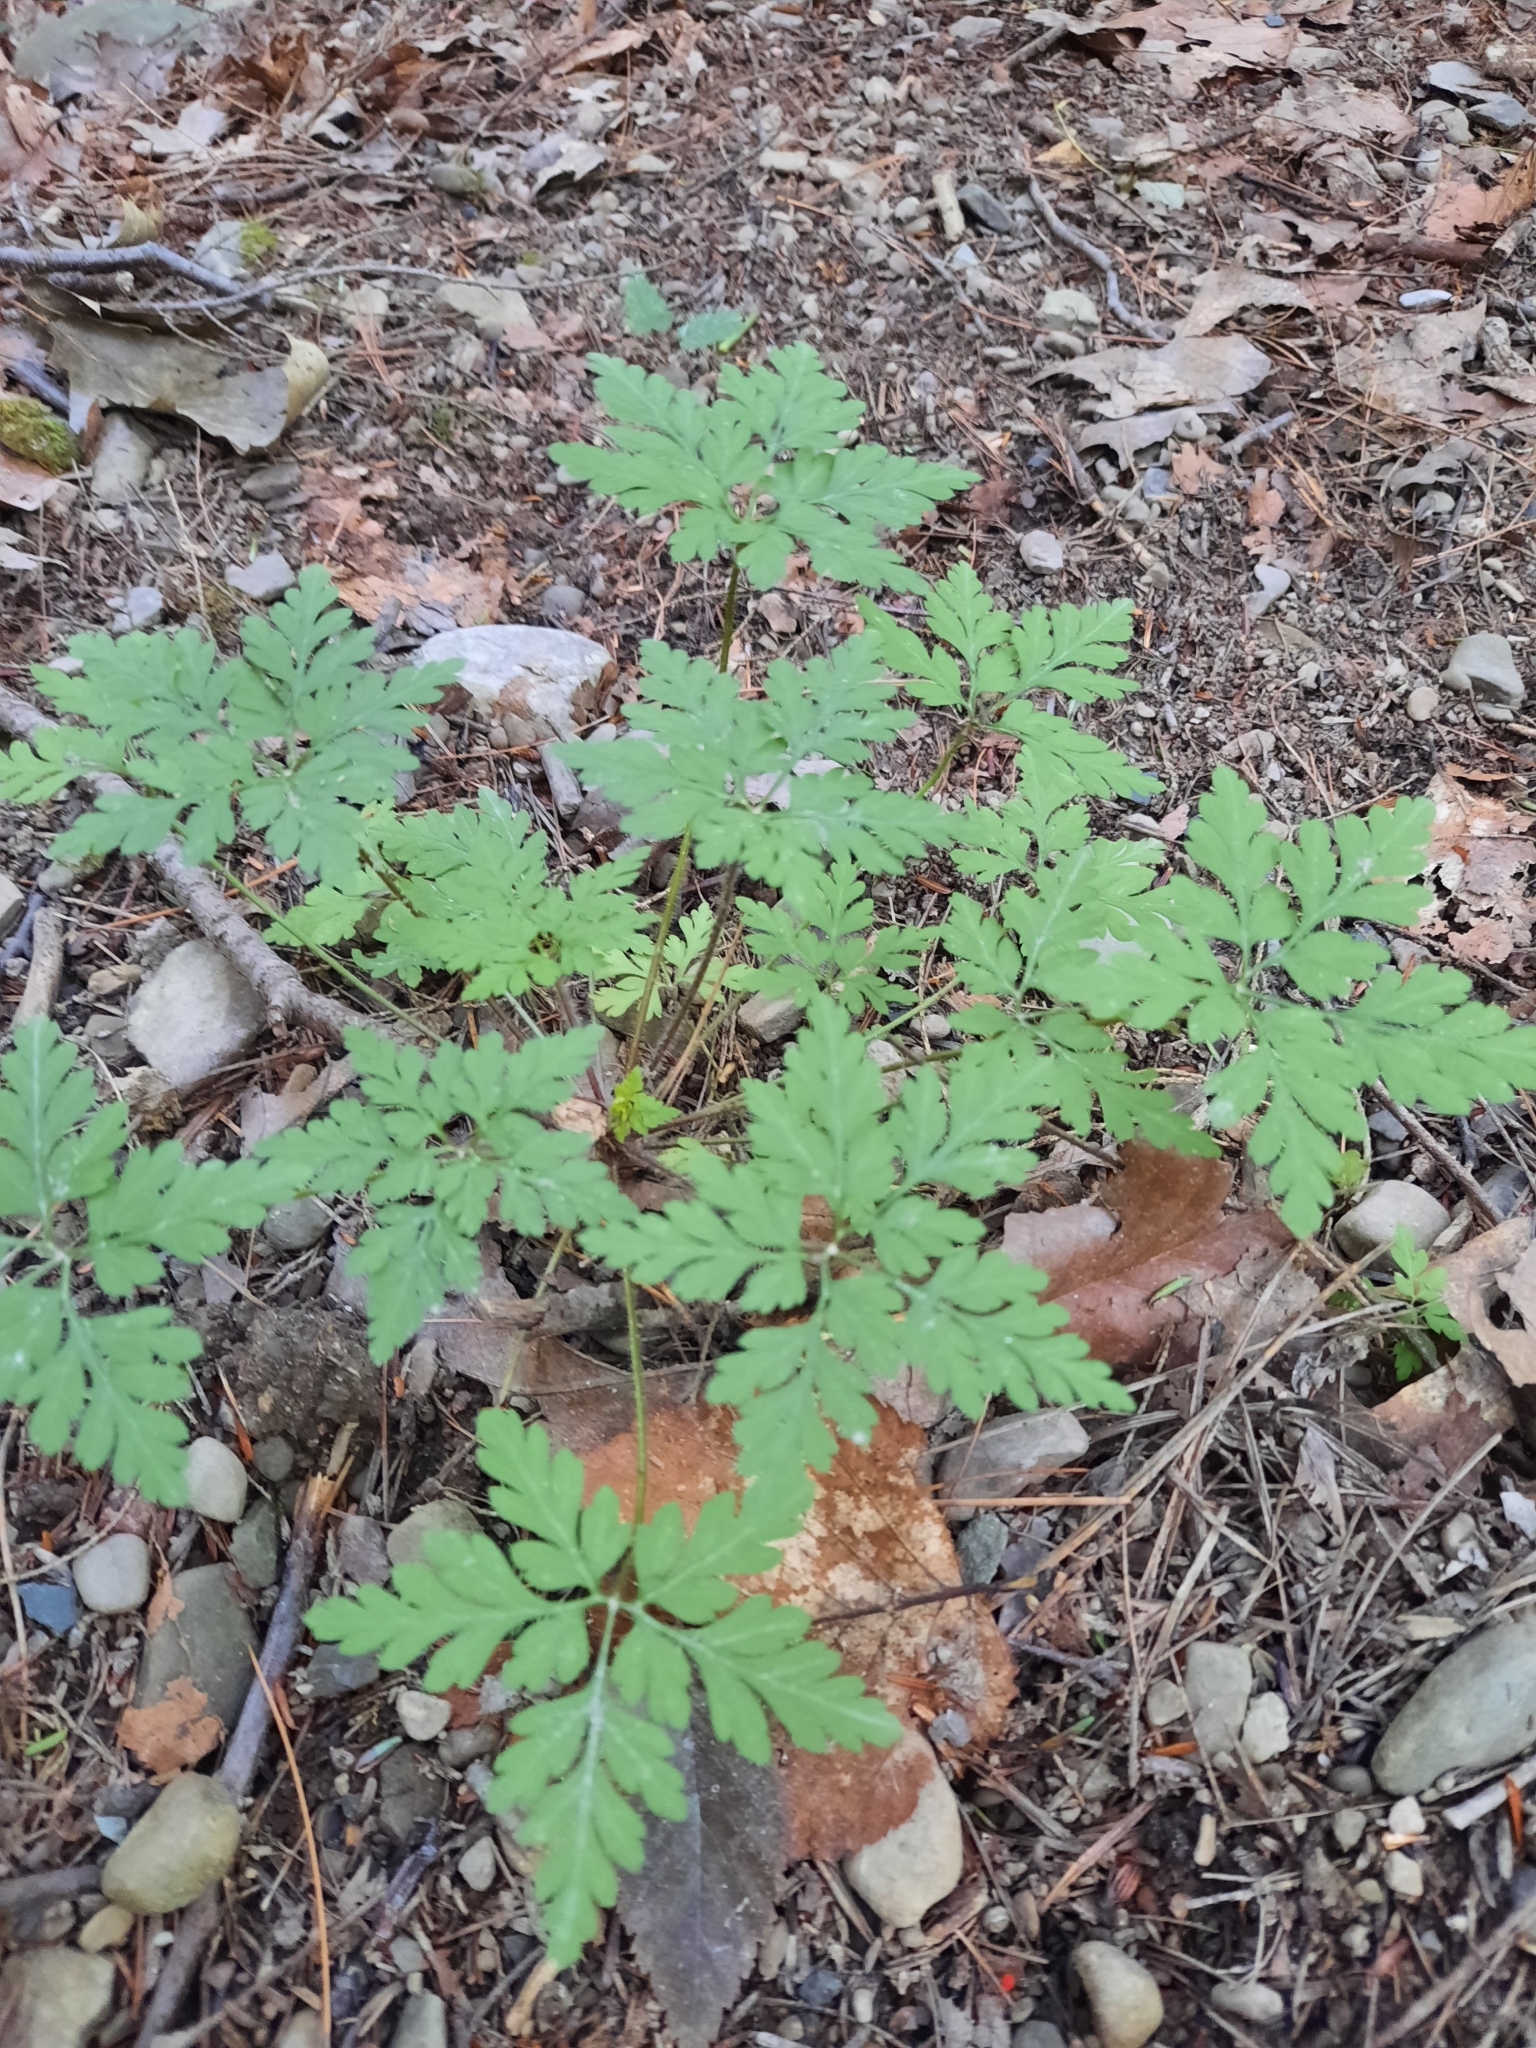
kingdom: Plantae
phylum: Tracheophyta
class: Magnoliopsida
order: Geraniales
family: Geraniaceae
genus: Geranium
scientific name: Geranium robertianum
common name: Herb-robert
